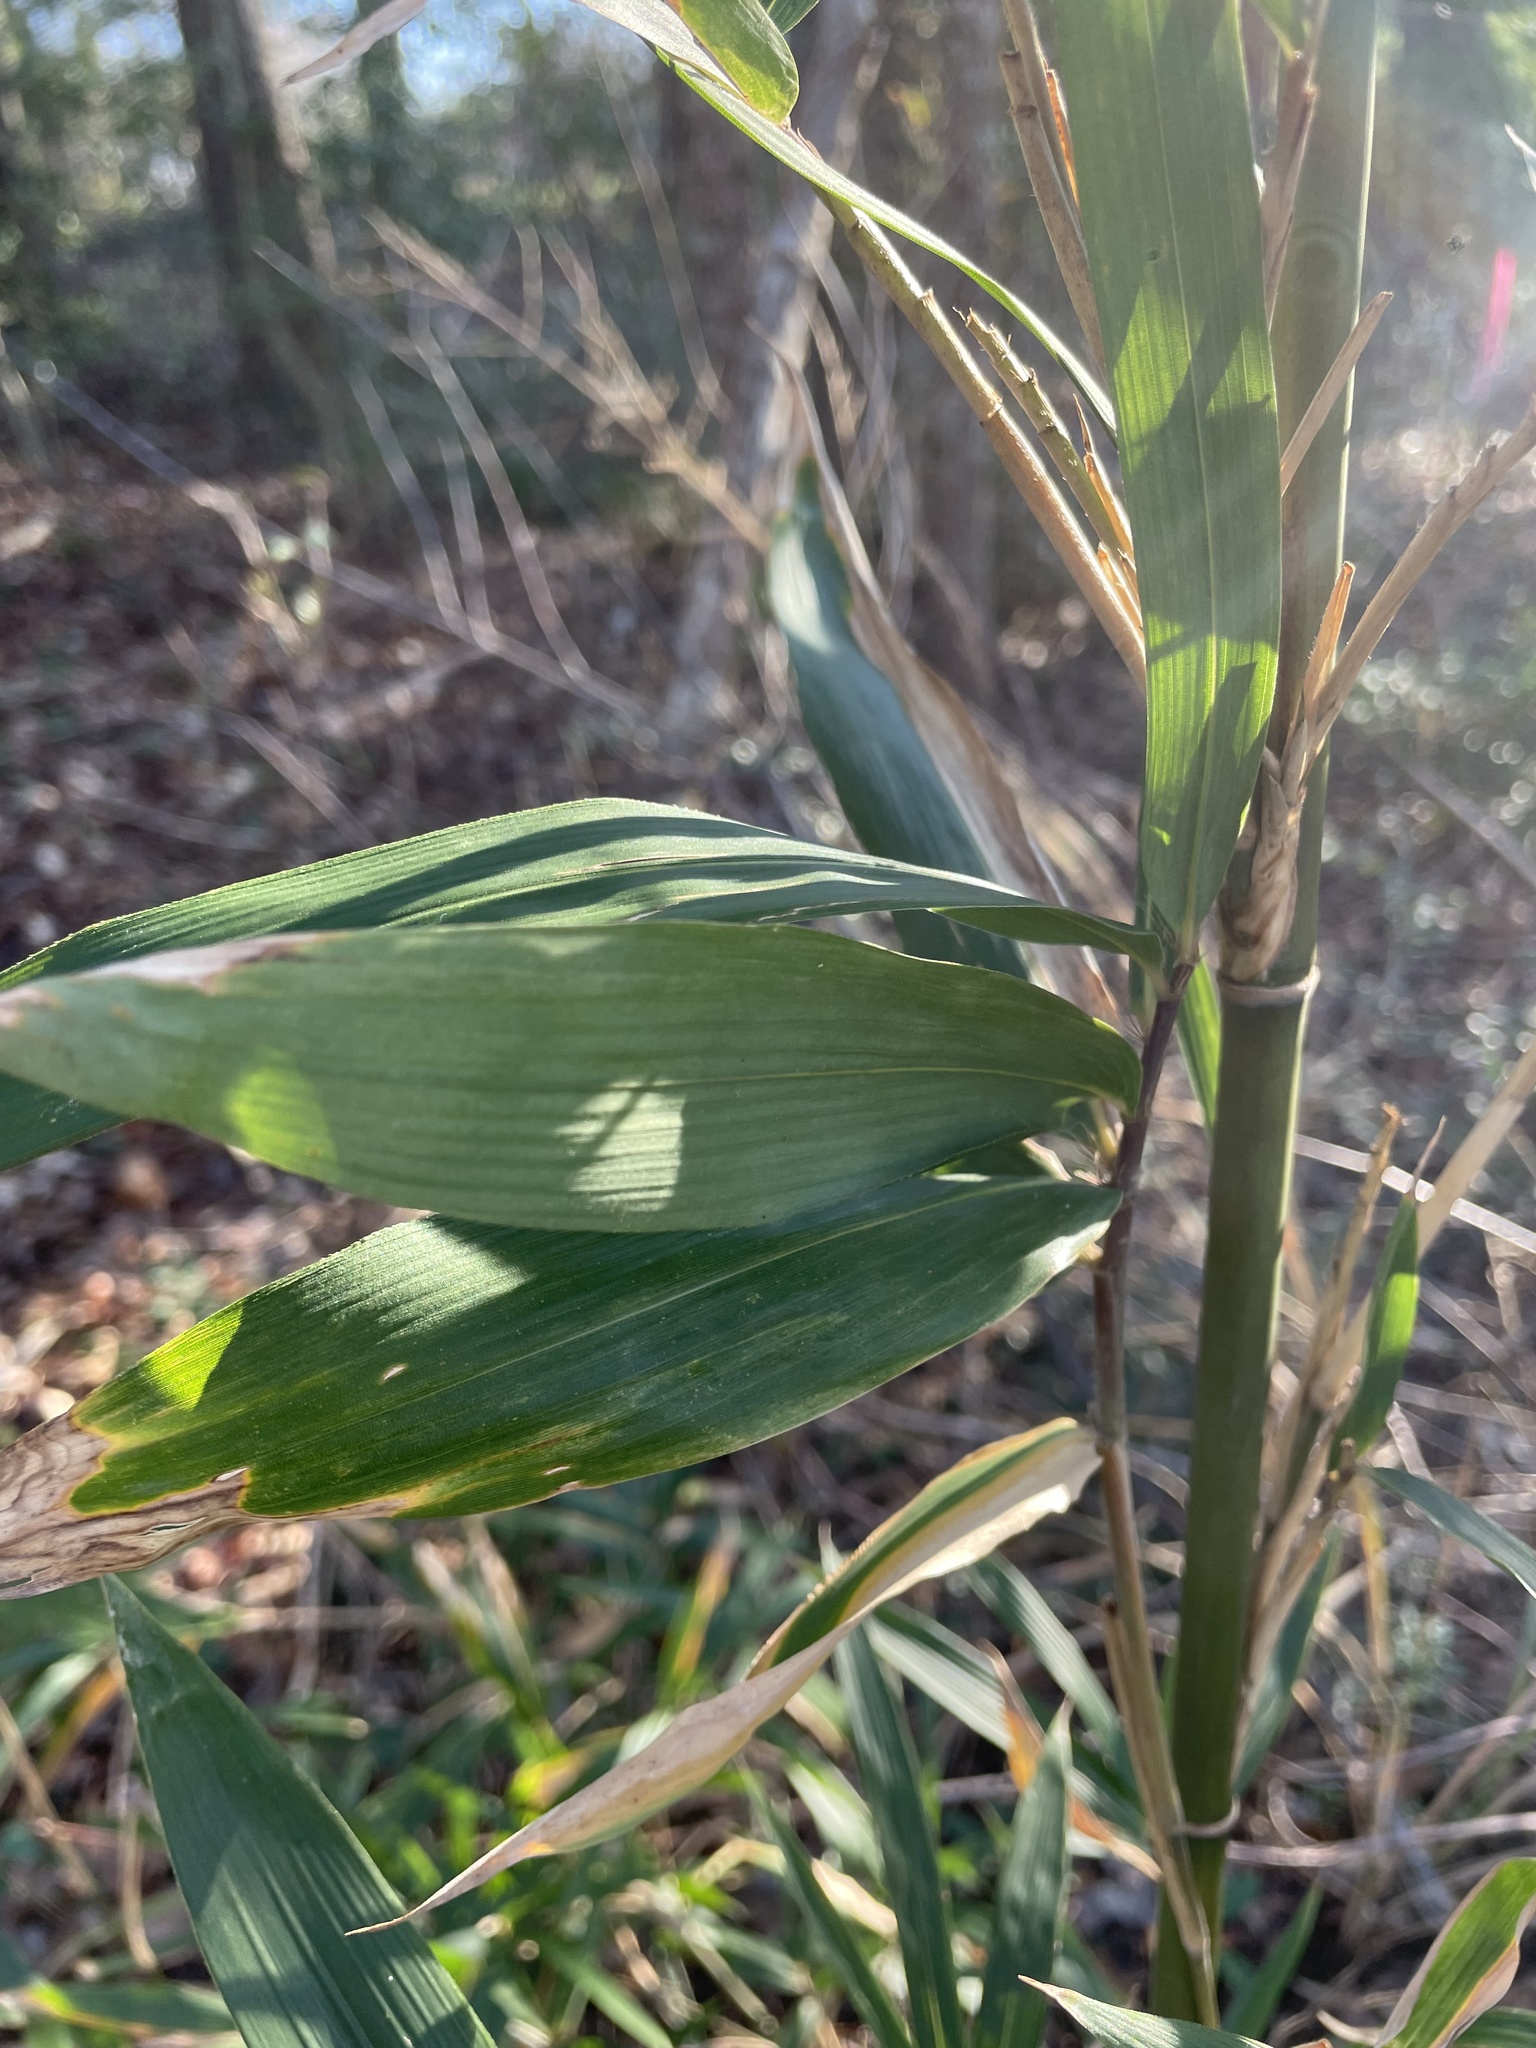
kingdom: Plantae
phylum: Tracheophyta
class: Liliopsida
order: Poales
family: Poaceae
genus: Arundinaria
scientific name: Arundinaria gigantea
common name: Giant cane
